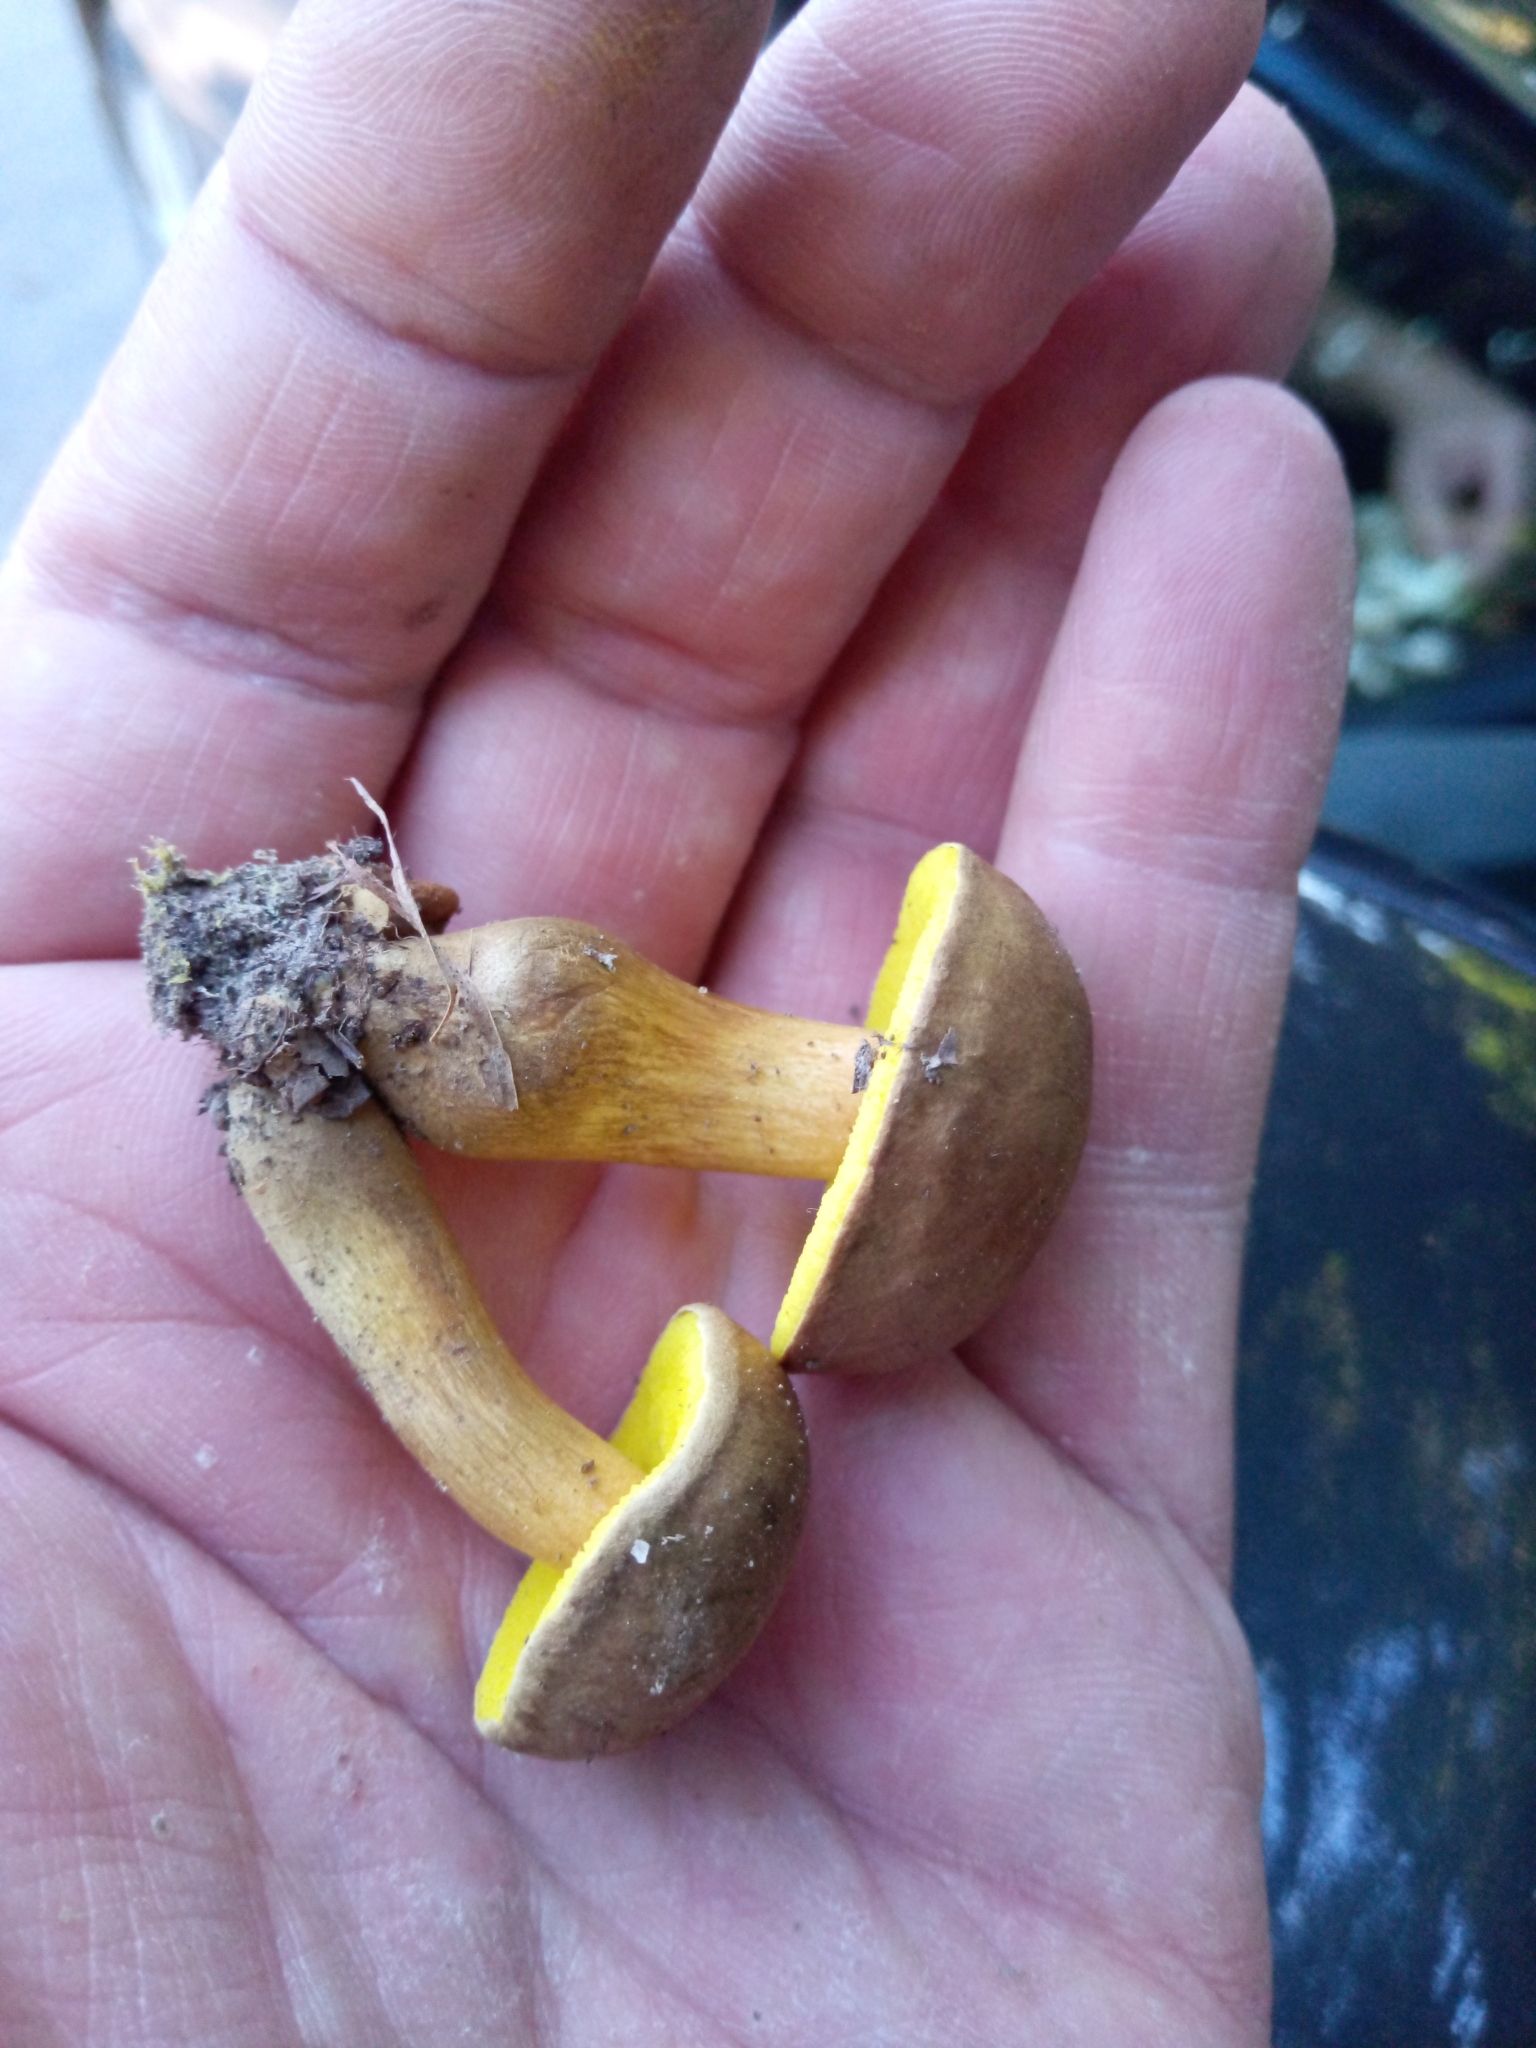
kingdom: Fungi
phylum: Basidiomycota
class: Agaricomycetes
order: Boletales
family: Boletaceae
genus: Aureoboletus
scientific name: Aureoboletus innixus
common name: Clustered brown bolete
